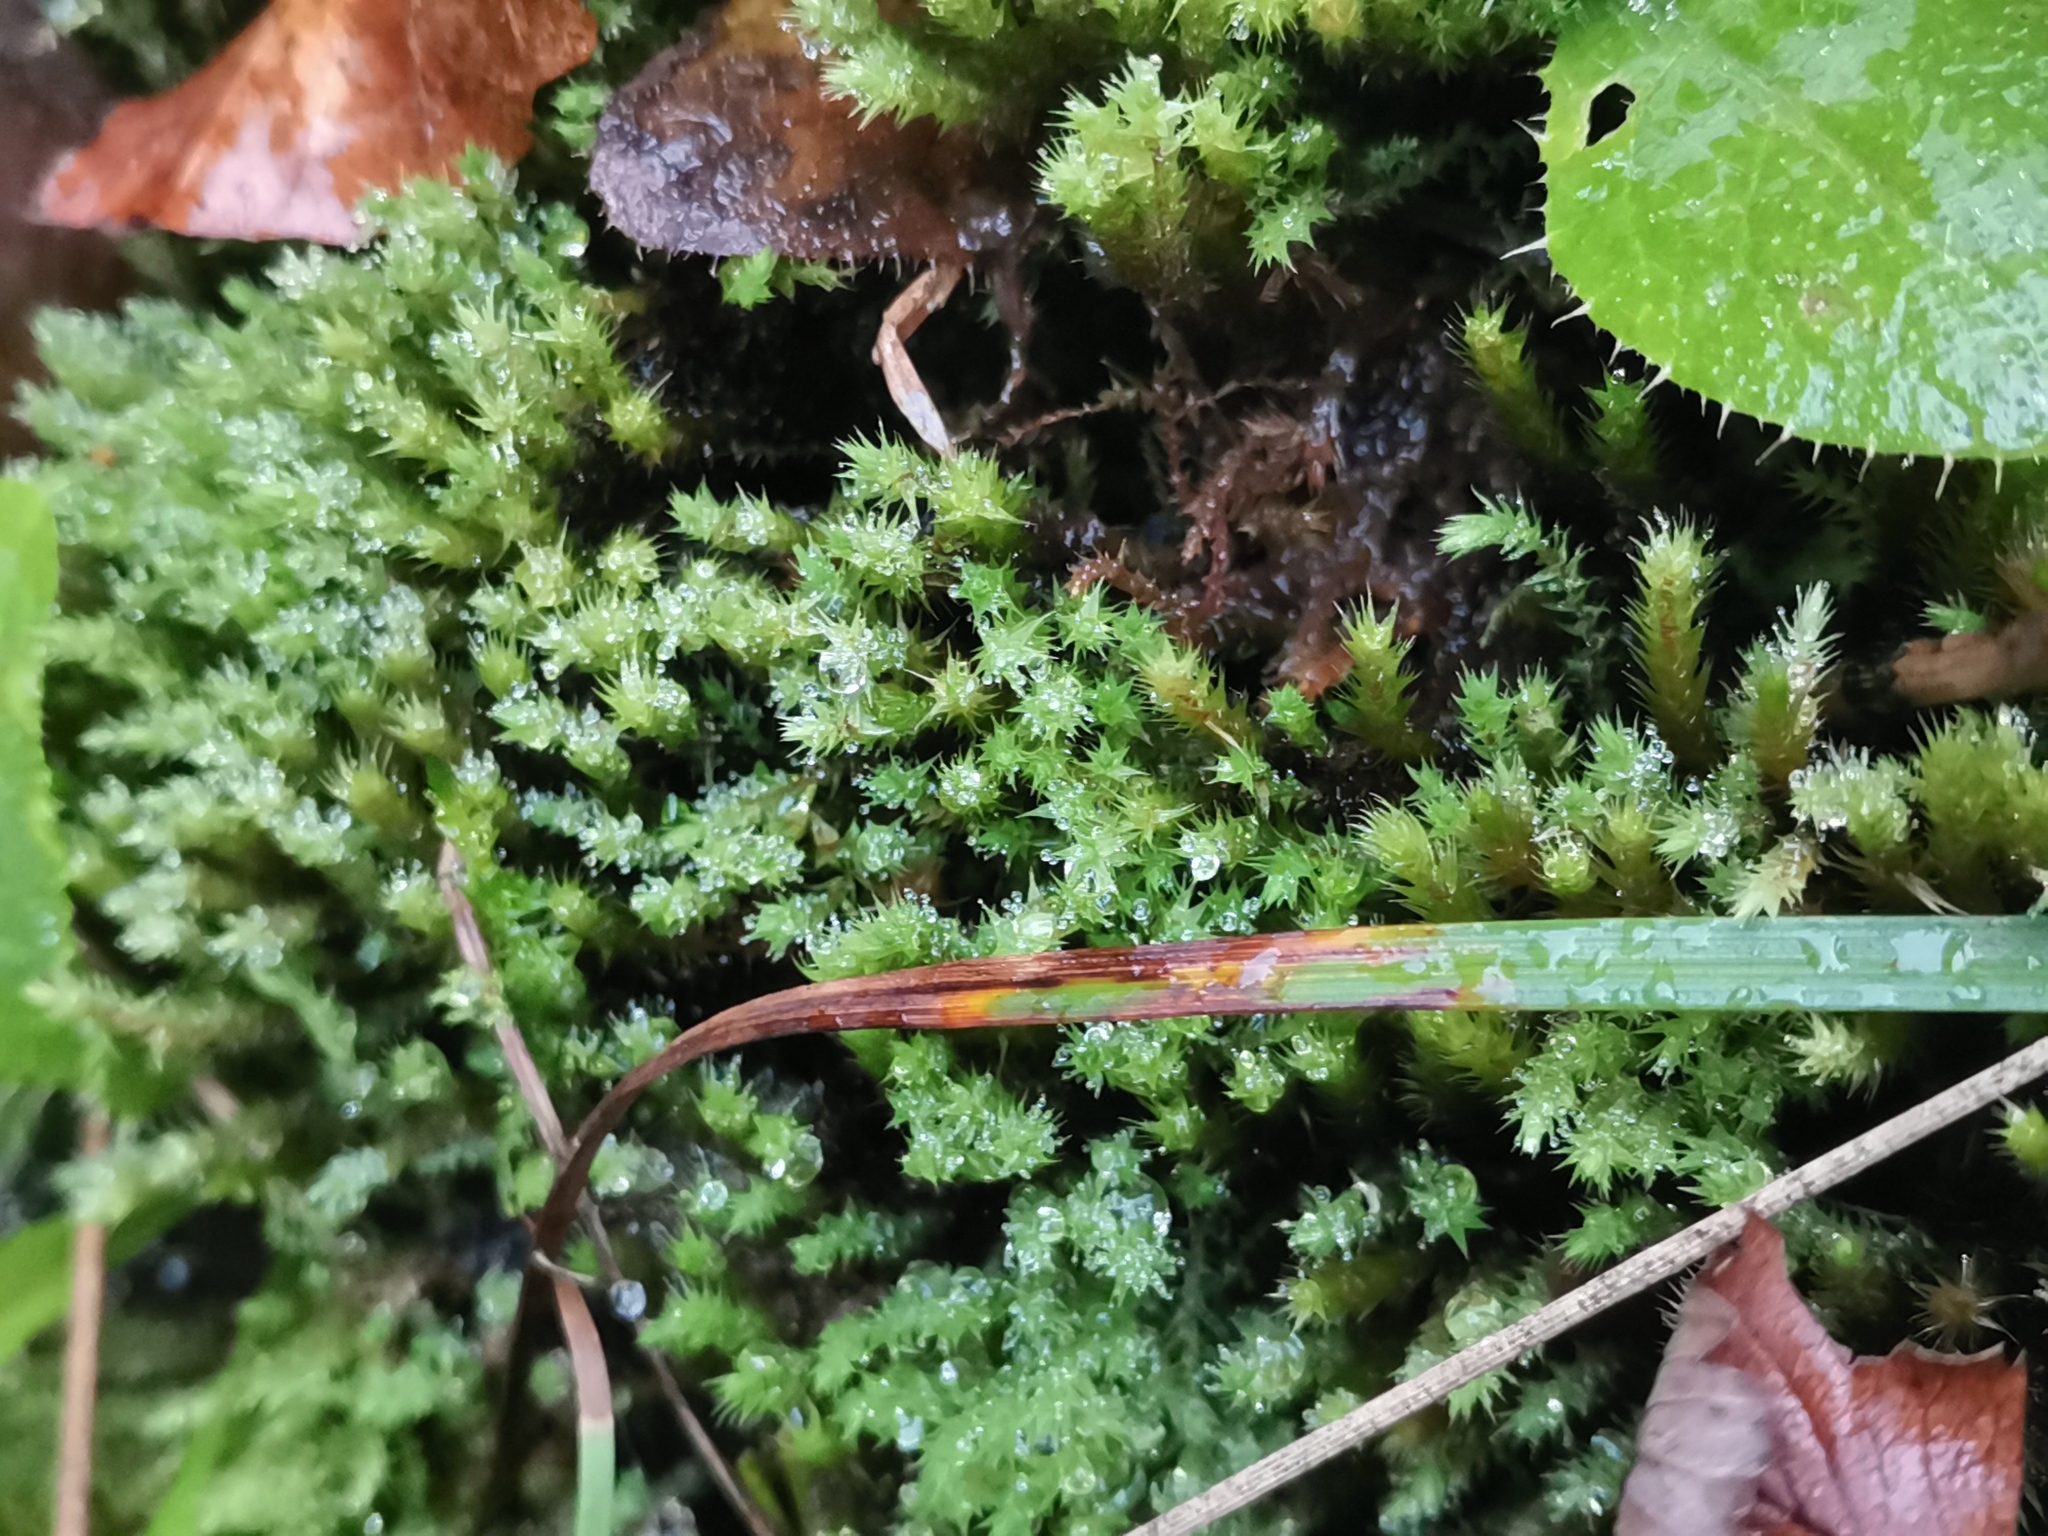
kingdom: Plantae
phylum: Bryophyta
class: Bryopsida
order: Bartramiales
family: Bartramiaceae
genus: Philonotis
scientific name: Philonotis fontana
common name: Fountain apple-moss
